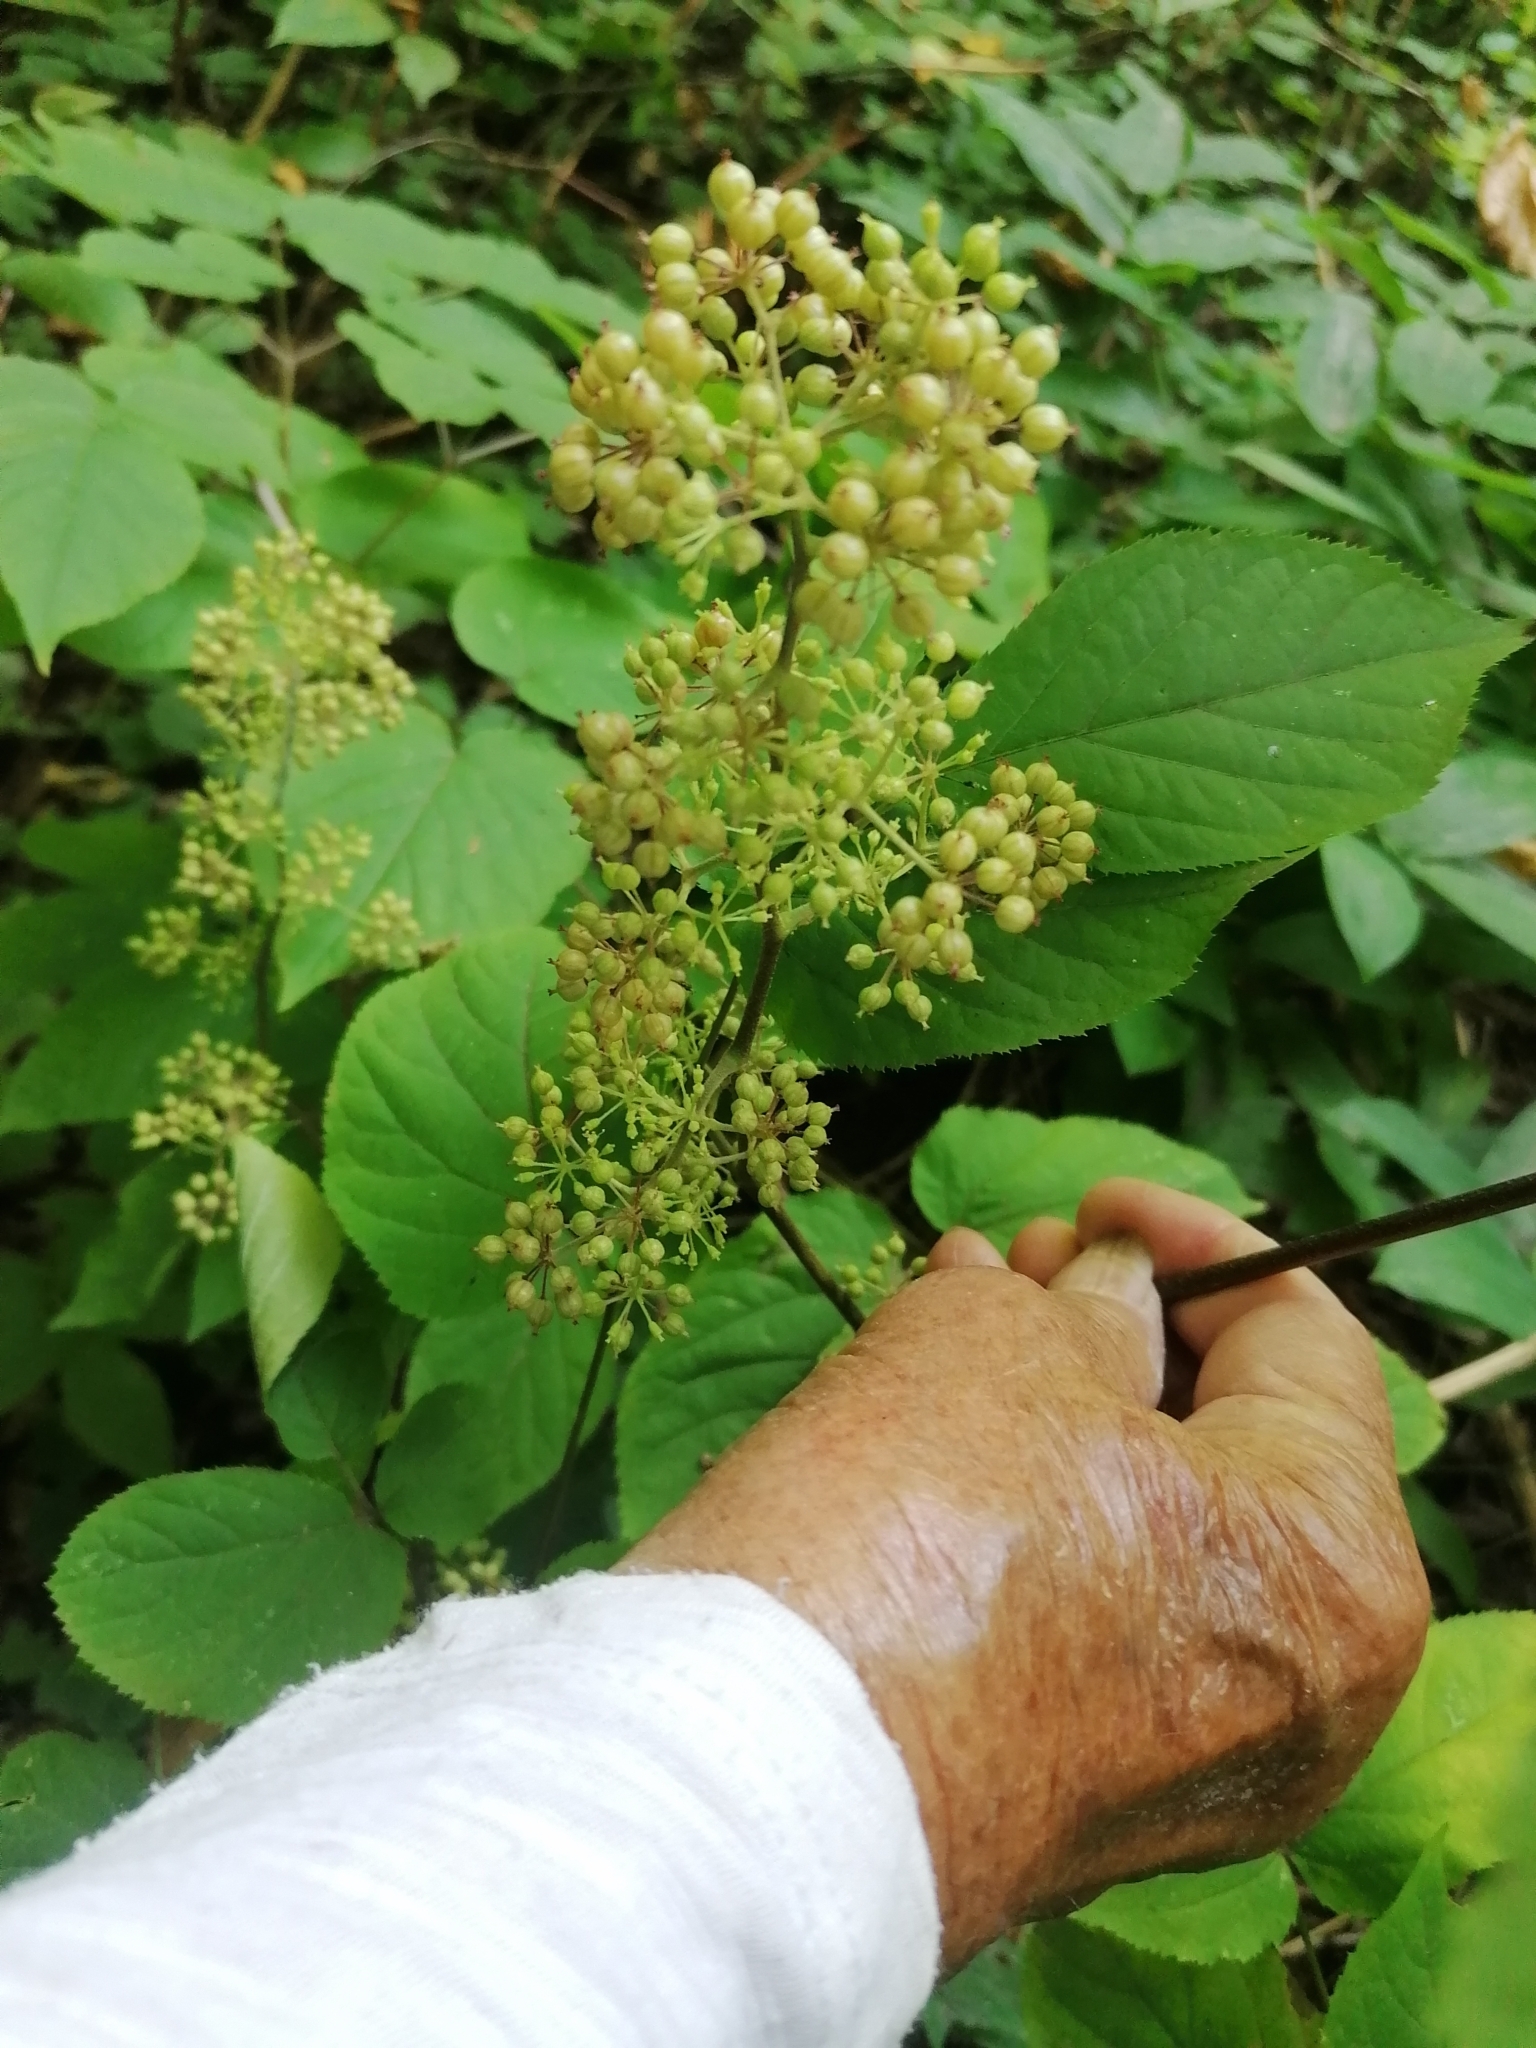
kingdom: Plantae
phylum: Tracheophyta
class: Magnoliopsida
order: Apiales
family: Araliaceae
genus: Aralia
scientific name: Aralia racemosa
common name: American-spikenard
